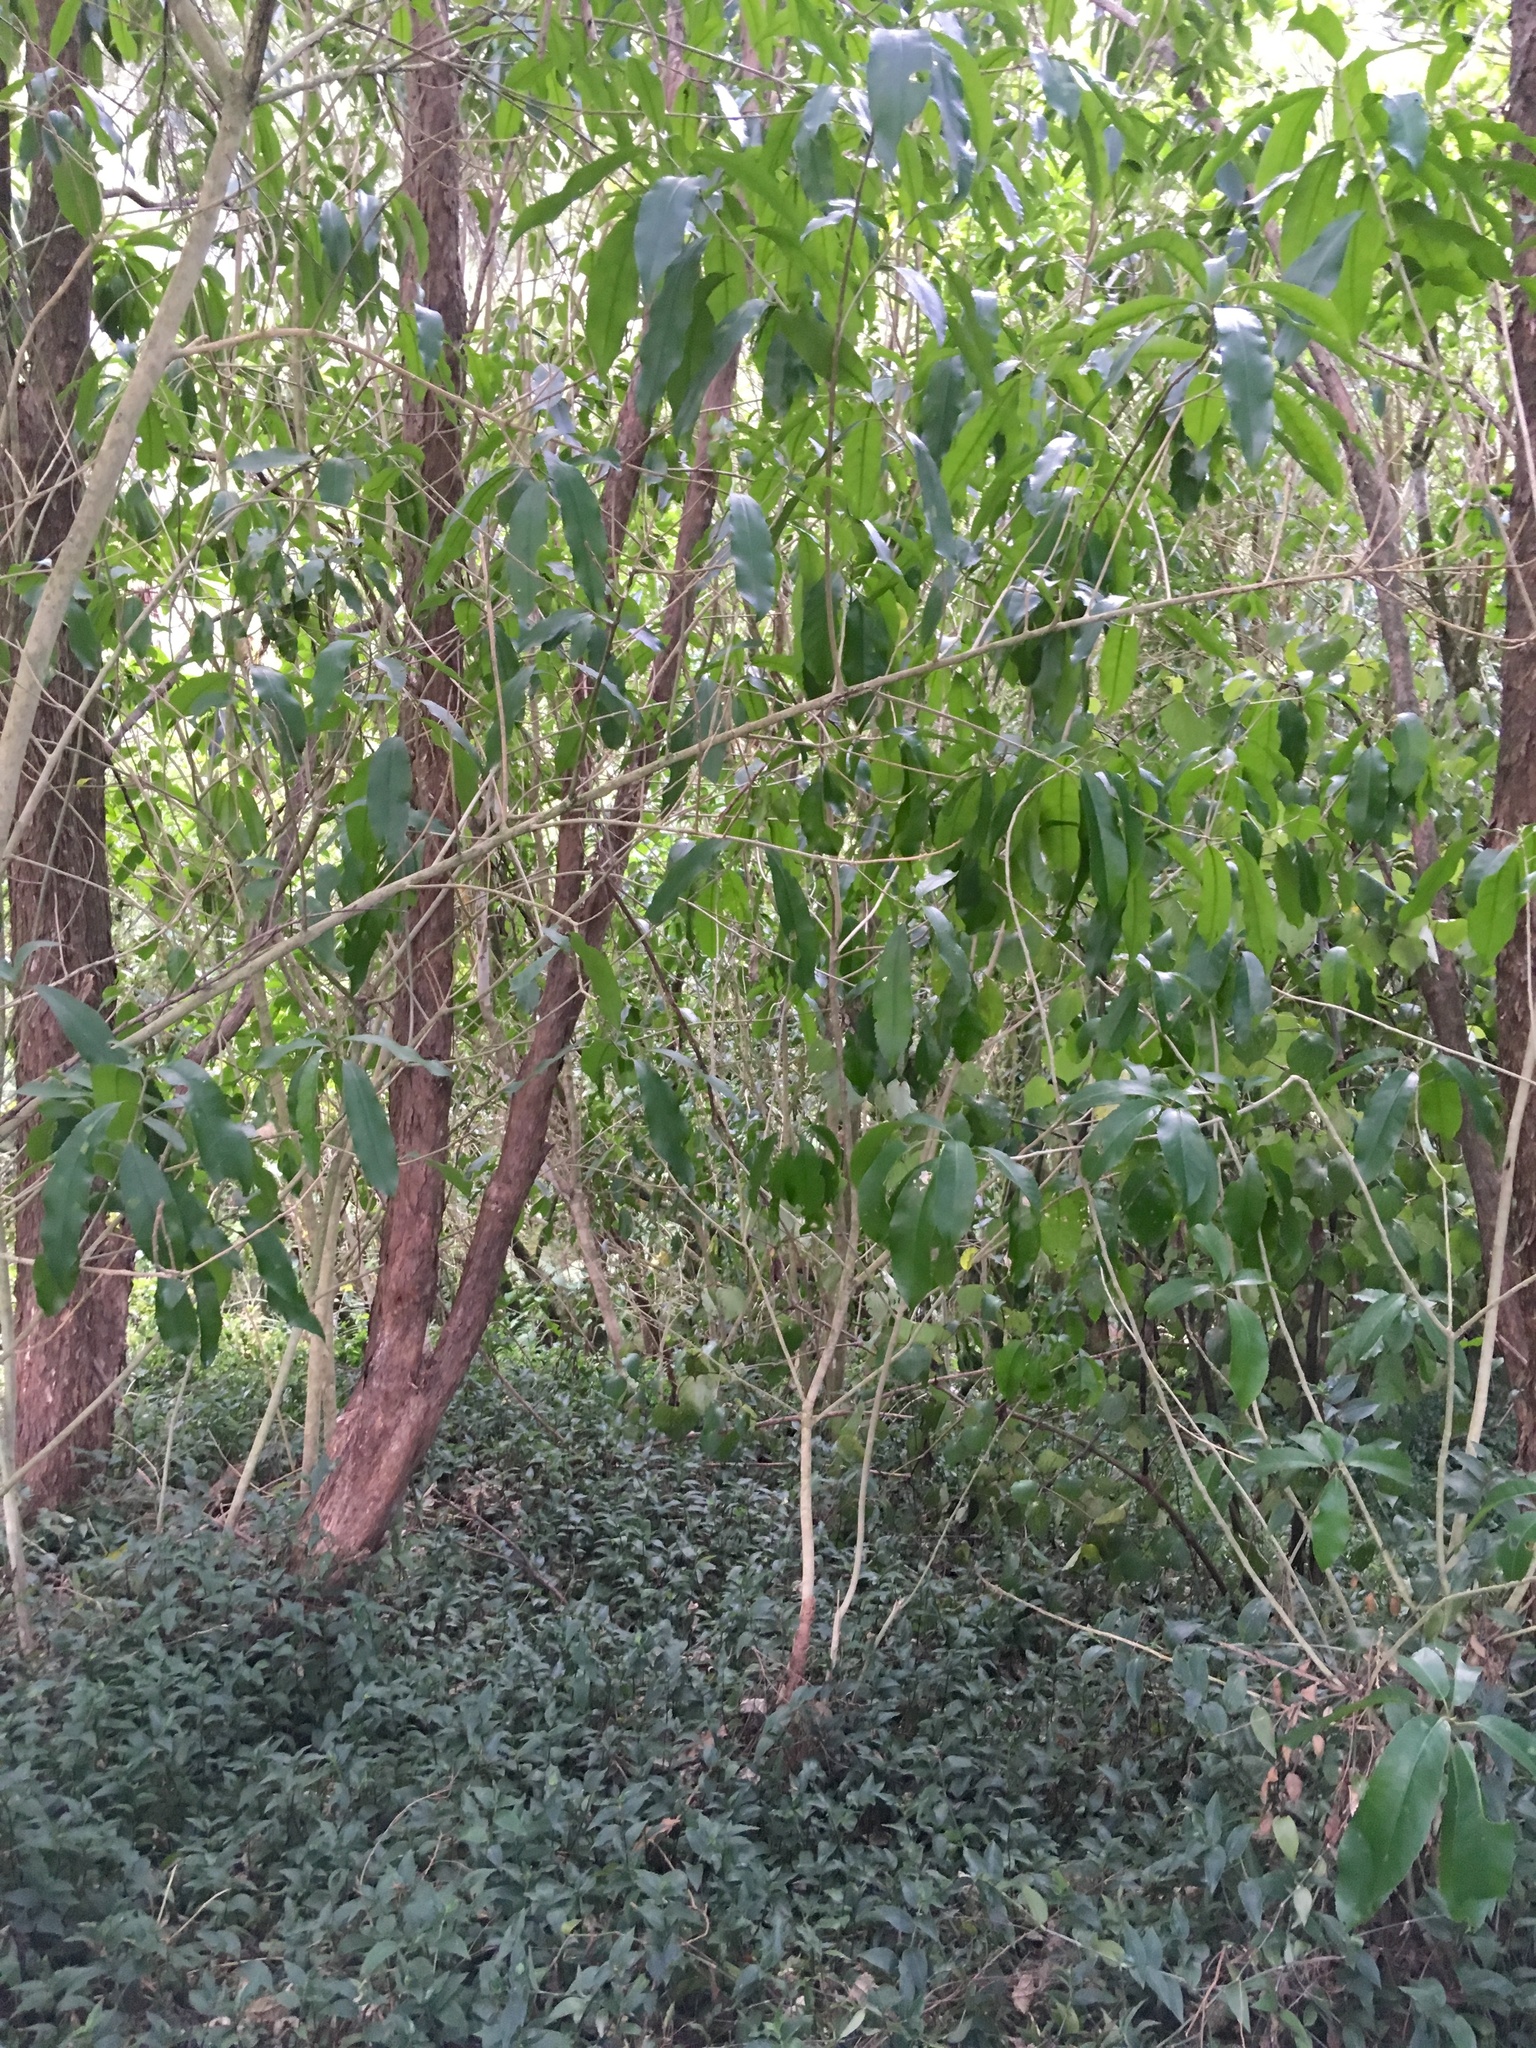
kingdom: Plantae
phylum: Tracheophyta
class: Magnoliopsida
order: Malpighiales
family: Violaceae
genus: Melicytus
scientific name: Melicytus ramiflorus
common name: Mahoe
